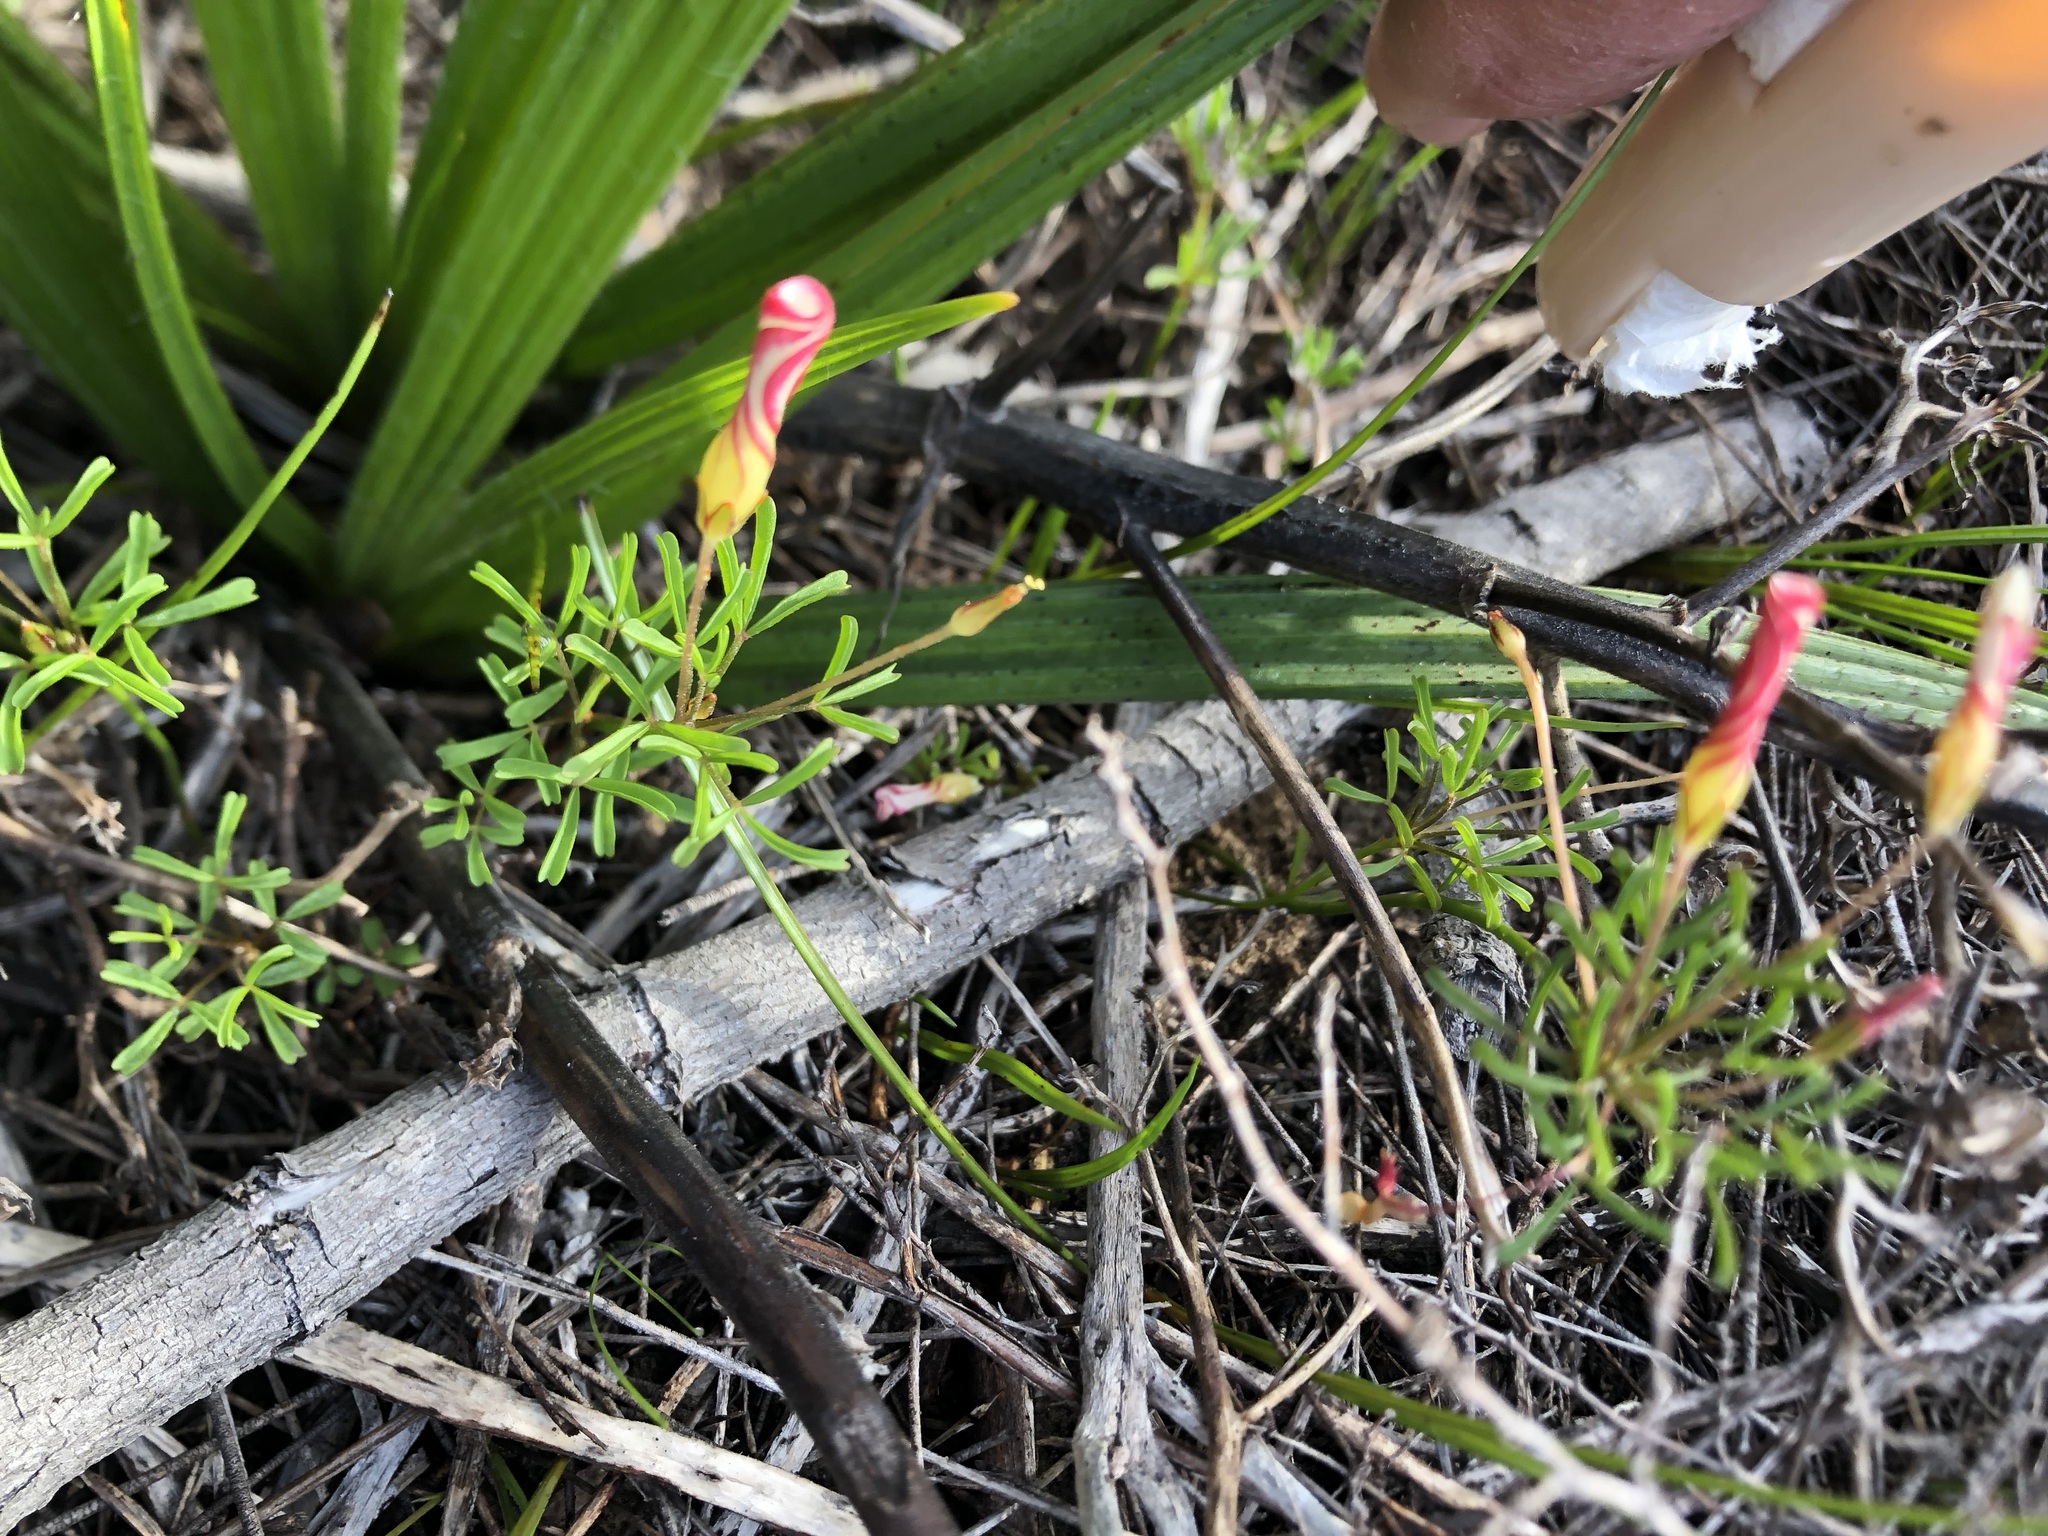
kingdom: Plantae
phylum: Tracheophyta
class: Magnoliopsida
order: Oxalidales
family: Oxalidaceae
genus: Oxalis
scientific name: Oxalis versicolor
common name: Peppermint rock oxalis
